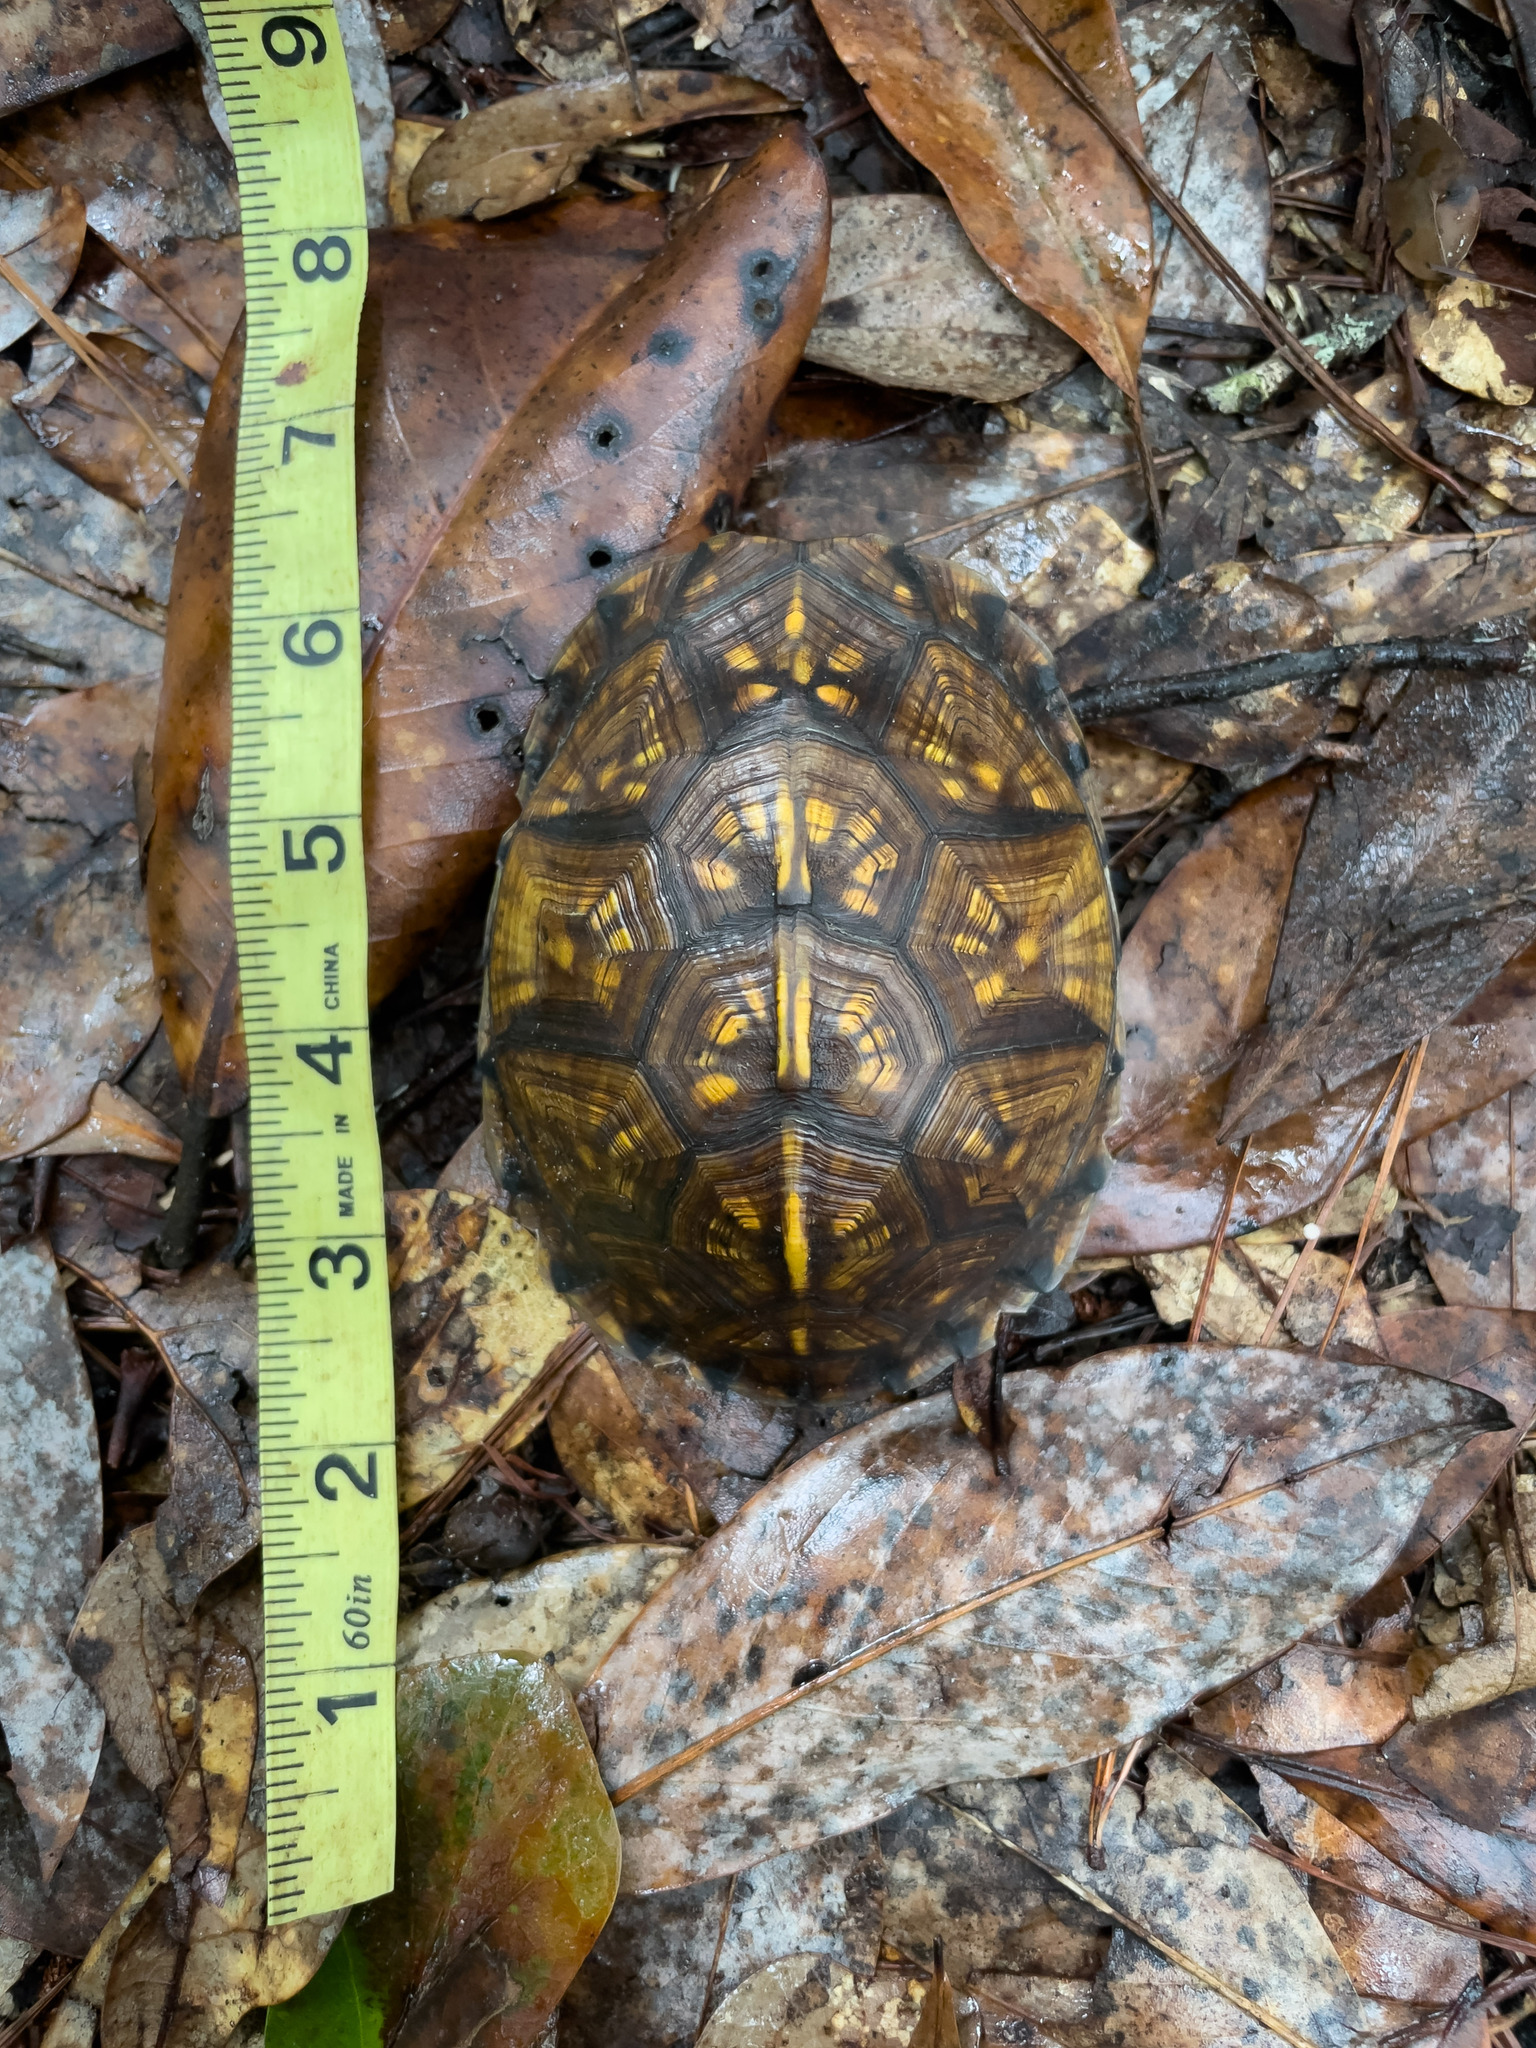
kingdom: Animalia
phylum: Chordata
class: Testudines
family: Emydidae
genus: Terrapene
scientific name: Terrapene carolina
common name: Common box turtle
